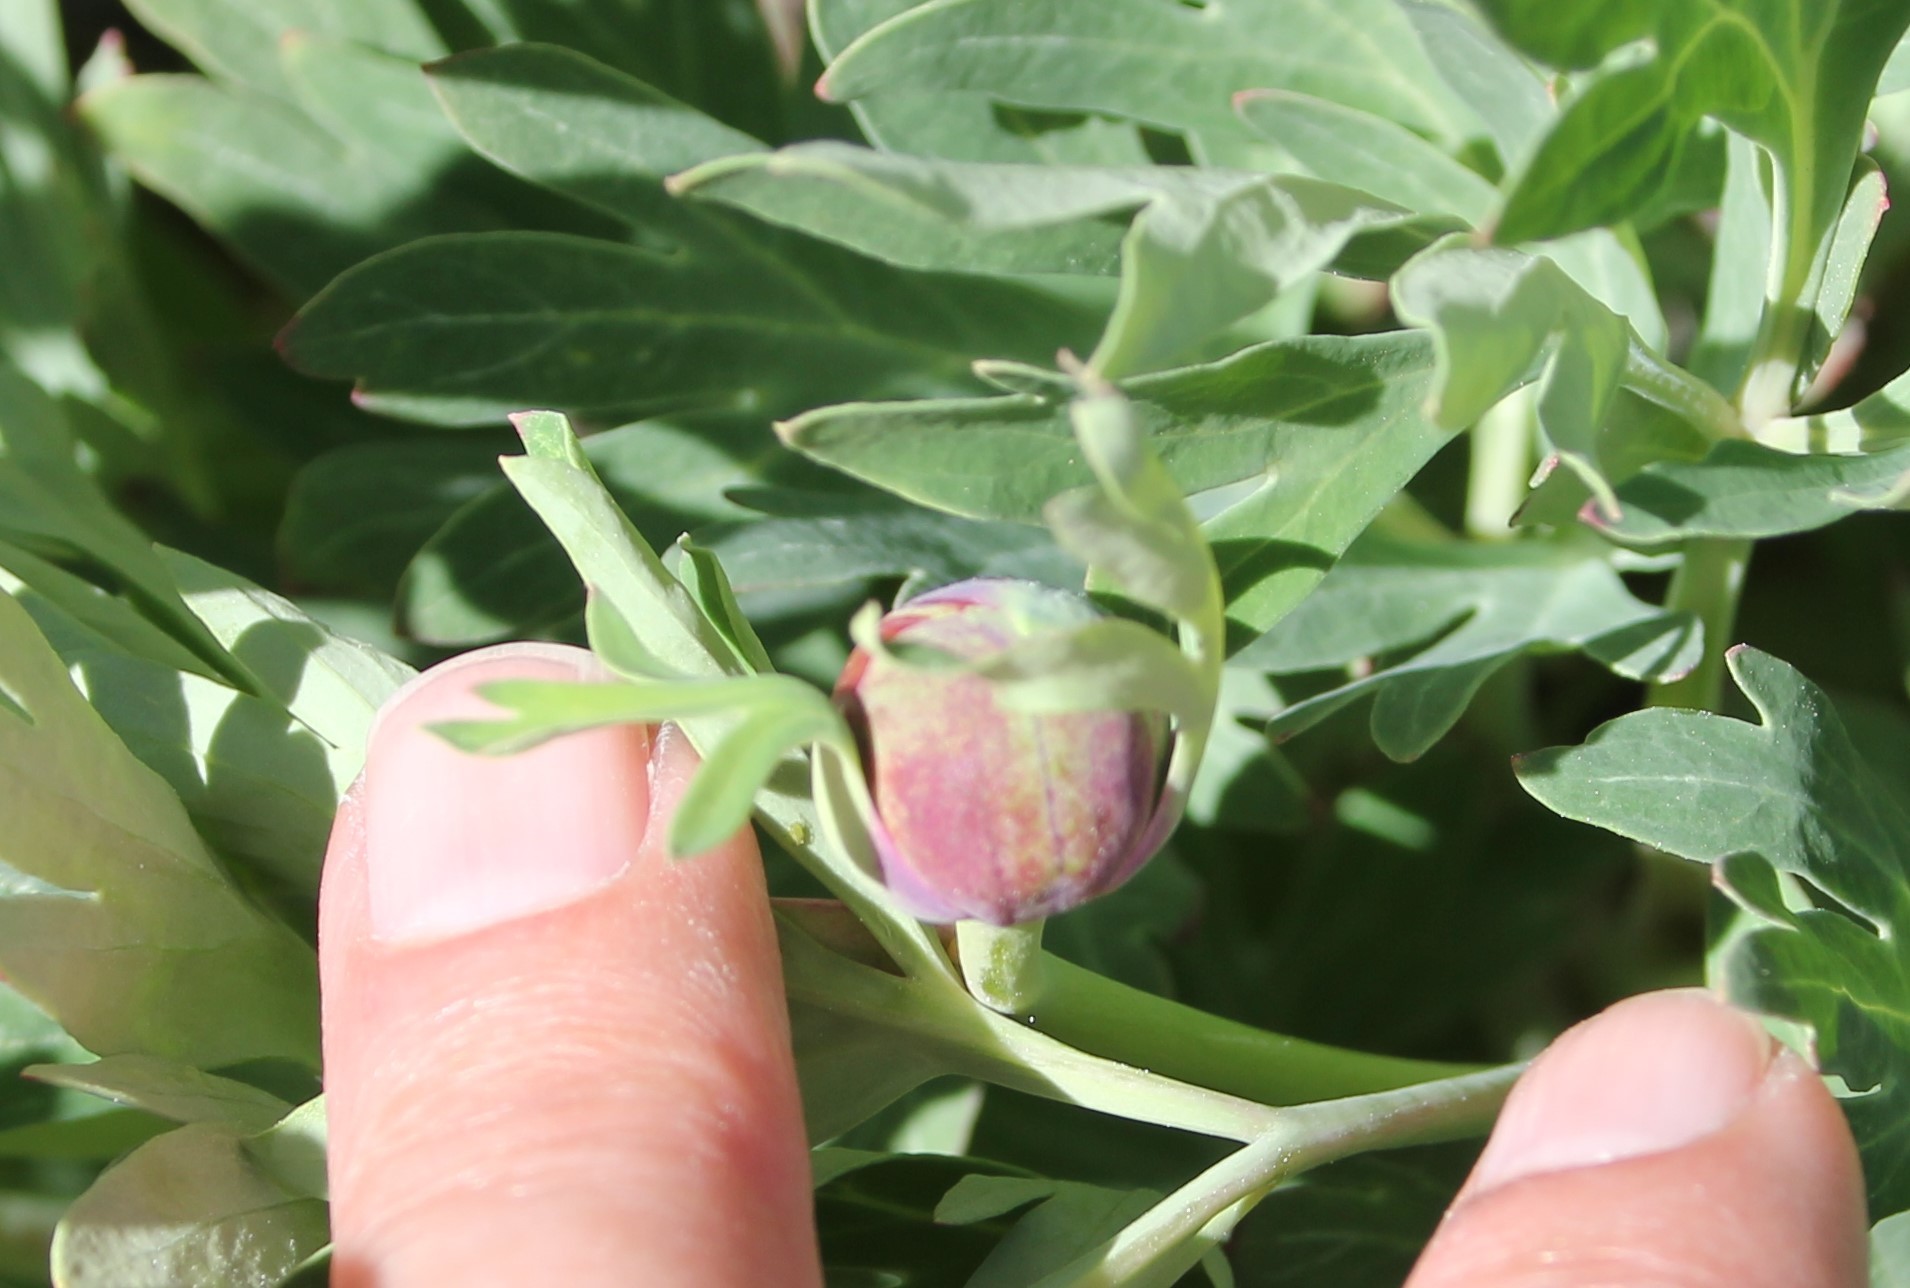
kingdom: Plantae
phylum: Tracheophyta
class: Magnoliopsida
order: Saxifragales
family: Paeoniaceae
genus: Paeonia
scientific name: Paeonia californica
